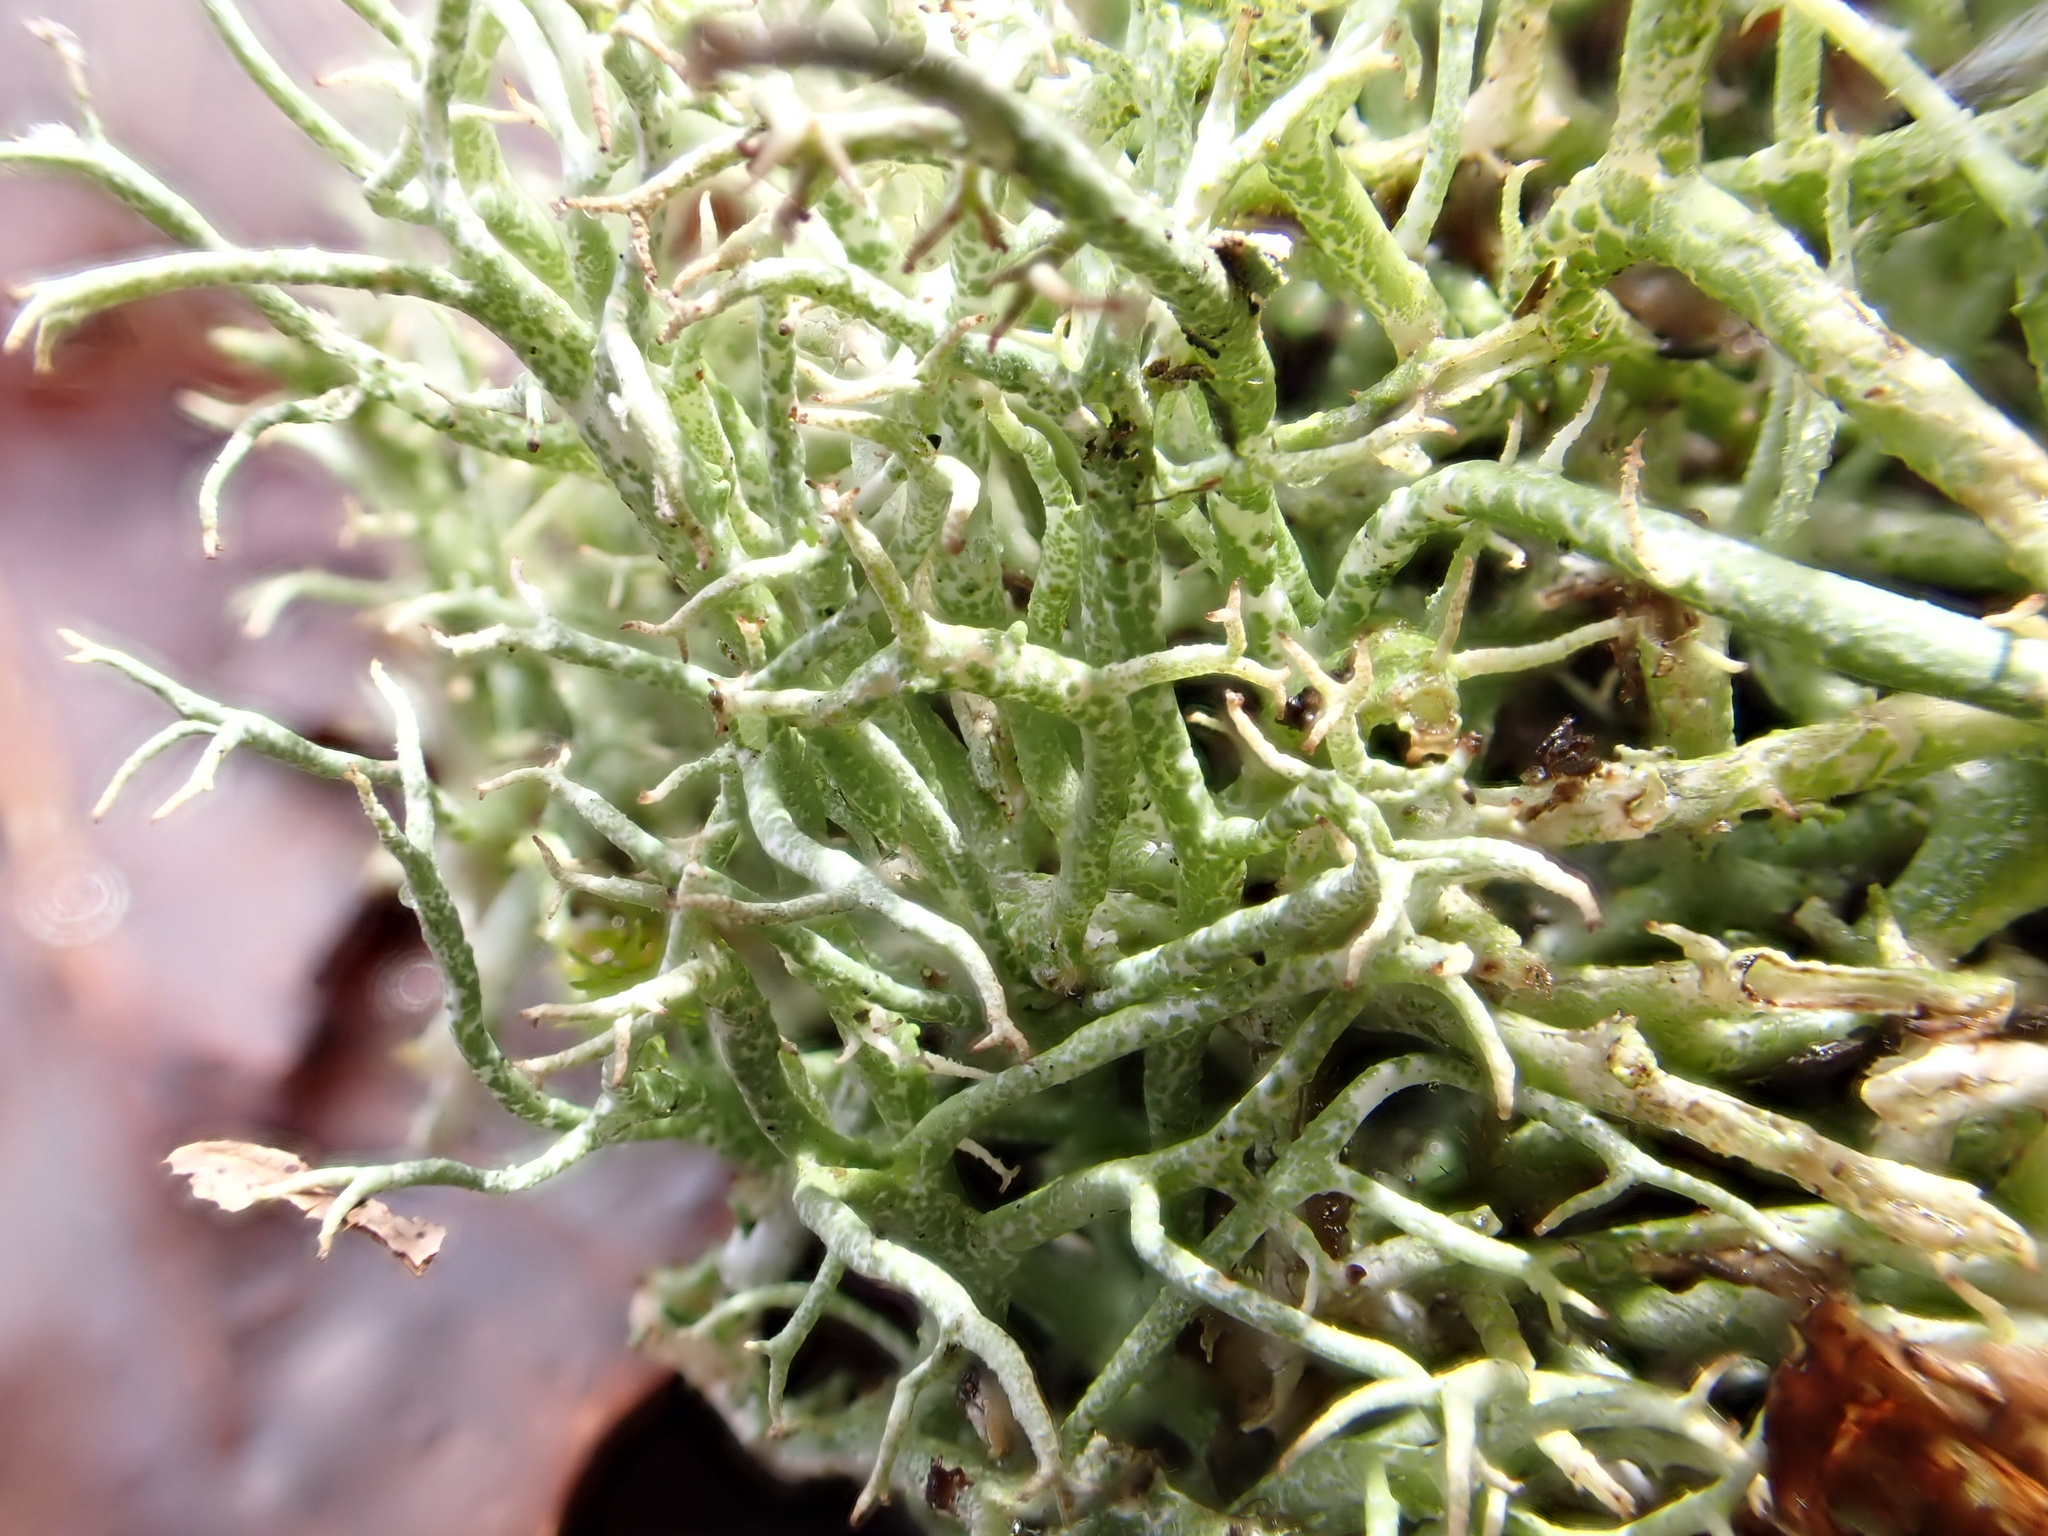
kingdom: Fungi
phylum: Ascomycota
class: Lecanoromycetes
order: Lecanorales
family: Cladoniaceae
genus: Cladonia
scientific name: Cladonia furcata
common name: Many-forked cladonia
